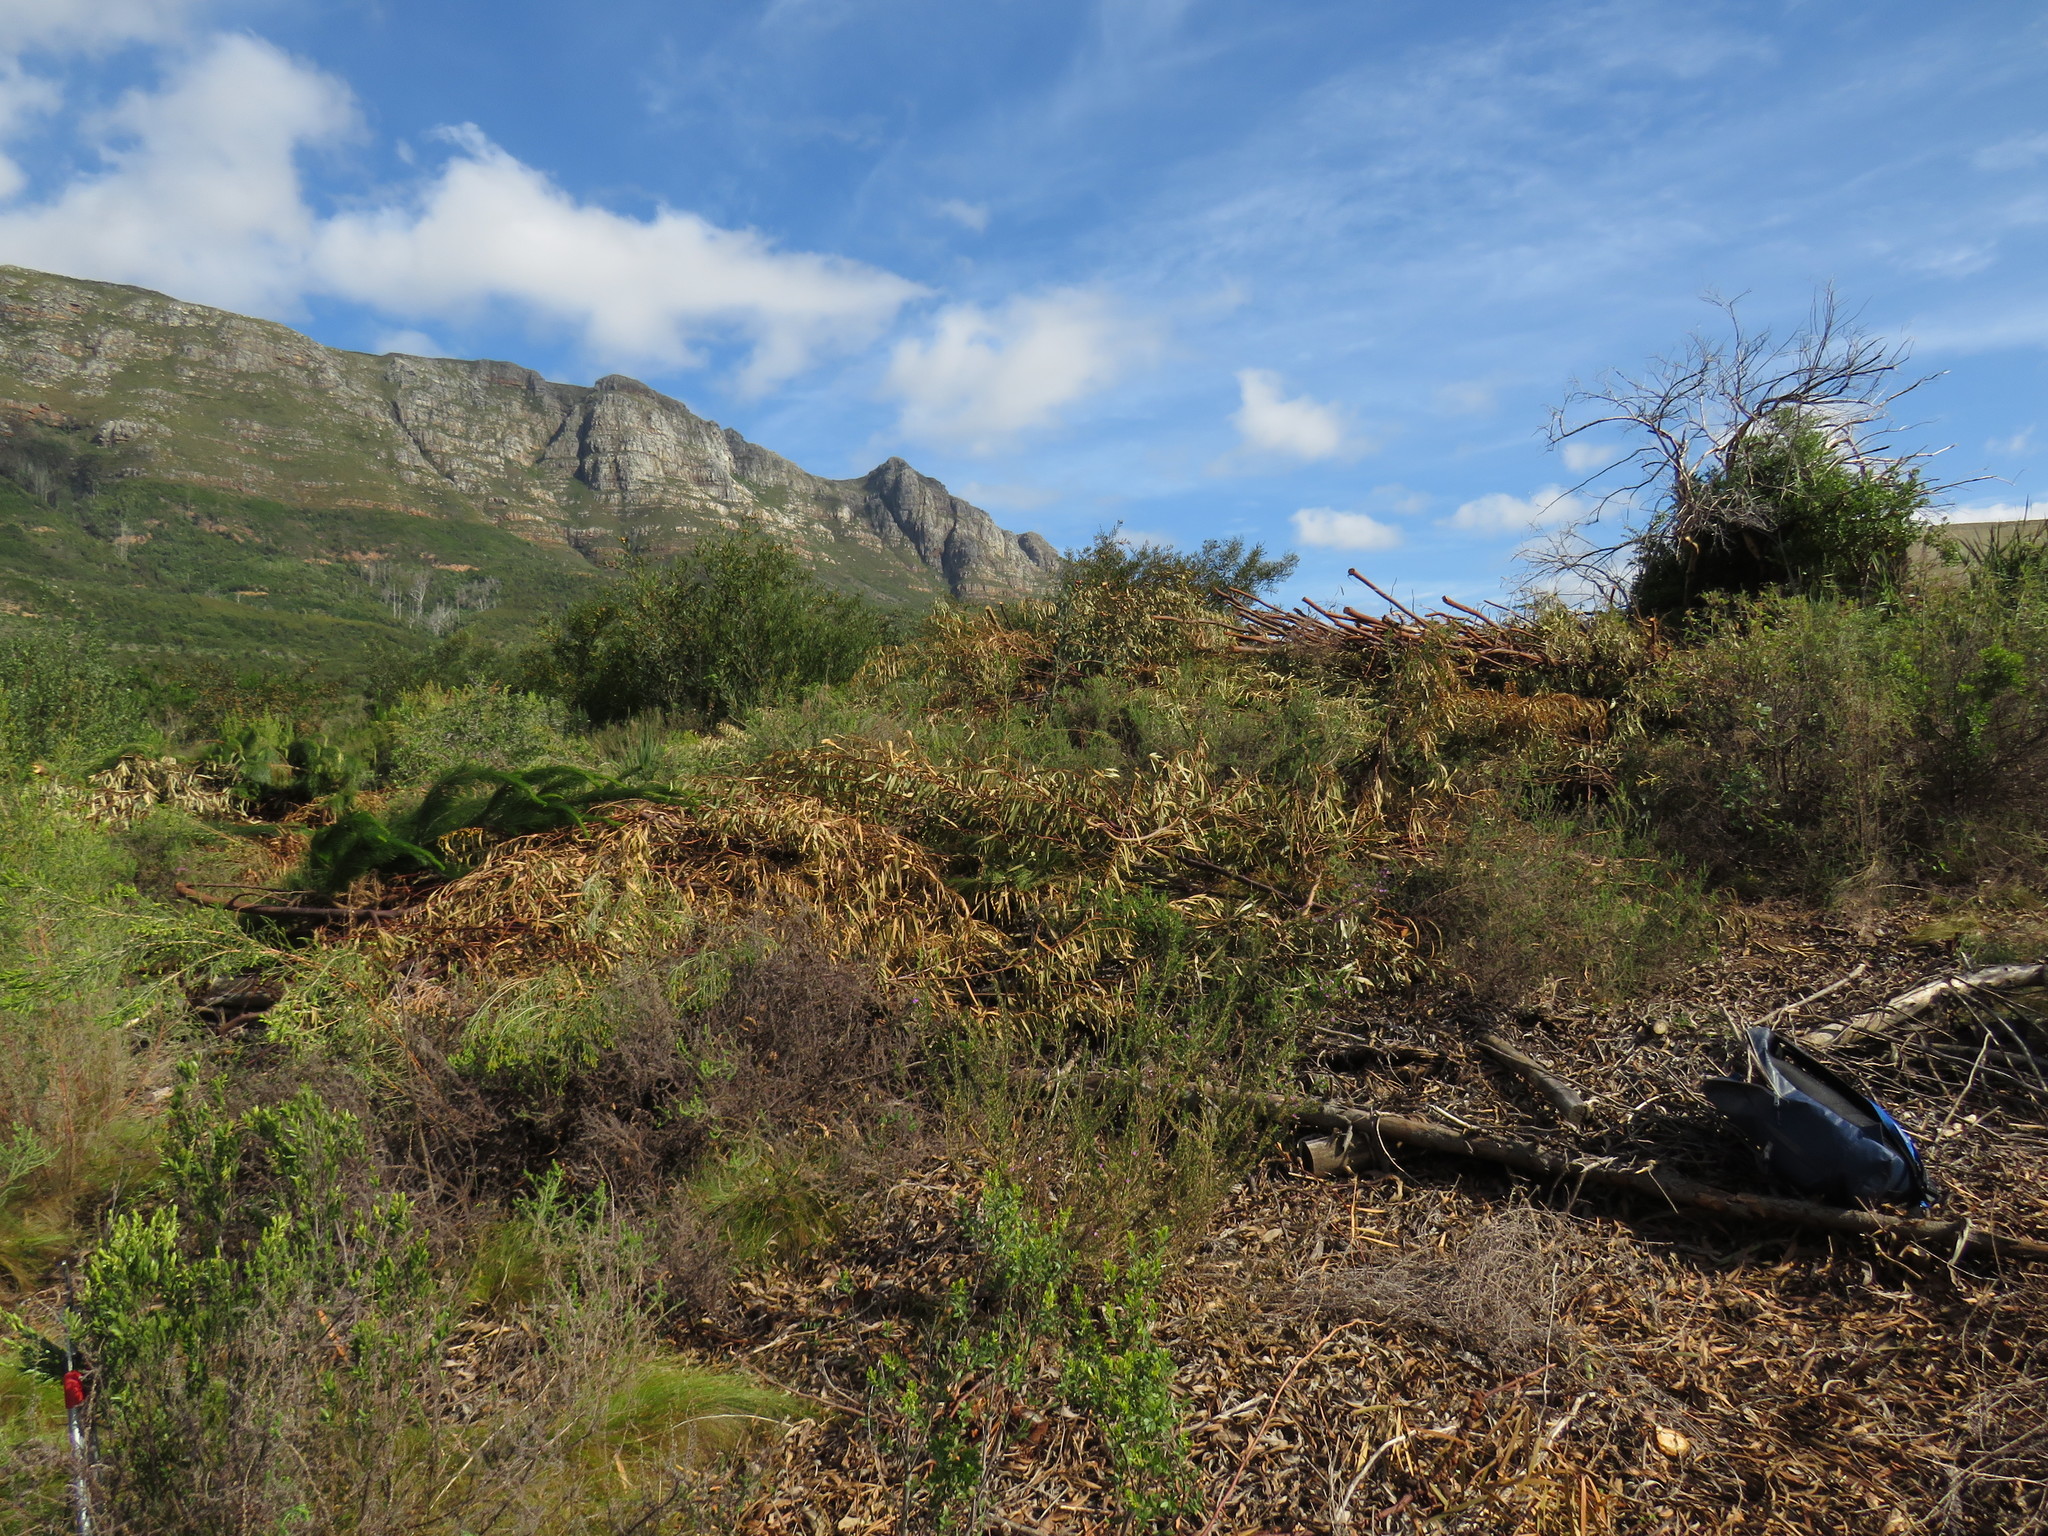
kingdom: Plantae
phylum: Tracheophyta
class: Magnoliopsida
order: Fabales
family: Fabaceae
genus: Acacia
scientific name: Acacia longifolia
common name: Sydney golden wattle
